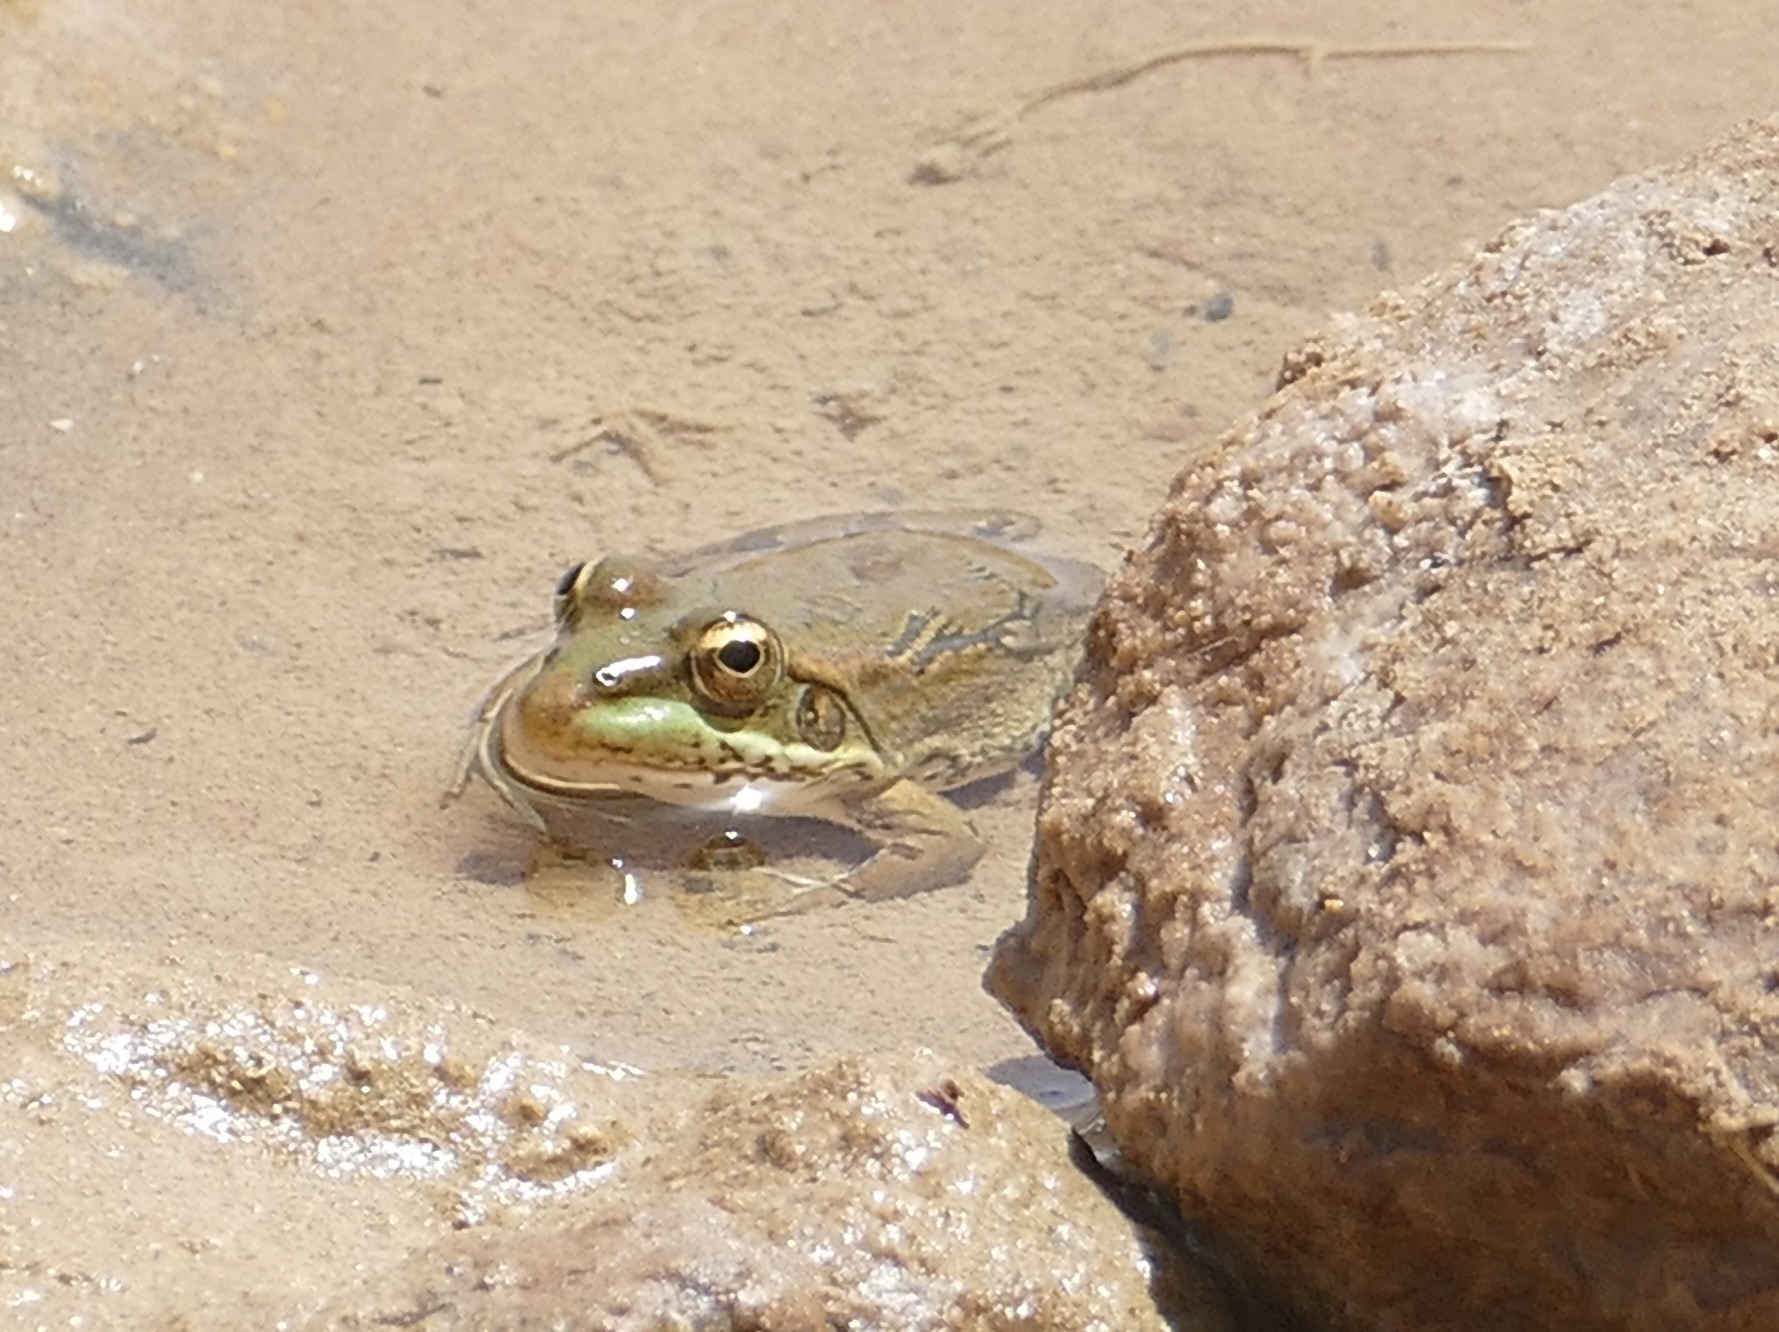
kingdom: Animalia
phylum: Chordata
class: Amphibia
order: Anura
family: Ranidae
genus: Pelophylax
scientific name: Pelophylax saharicus
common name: Sahara frog
